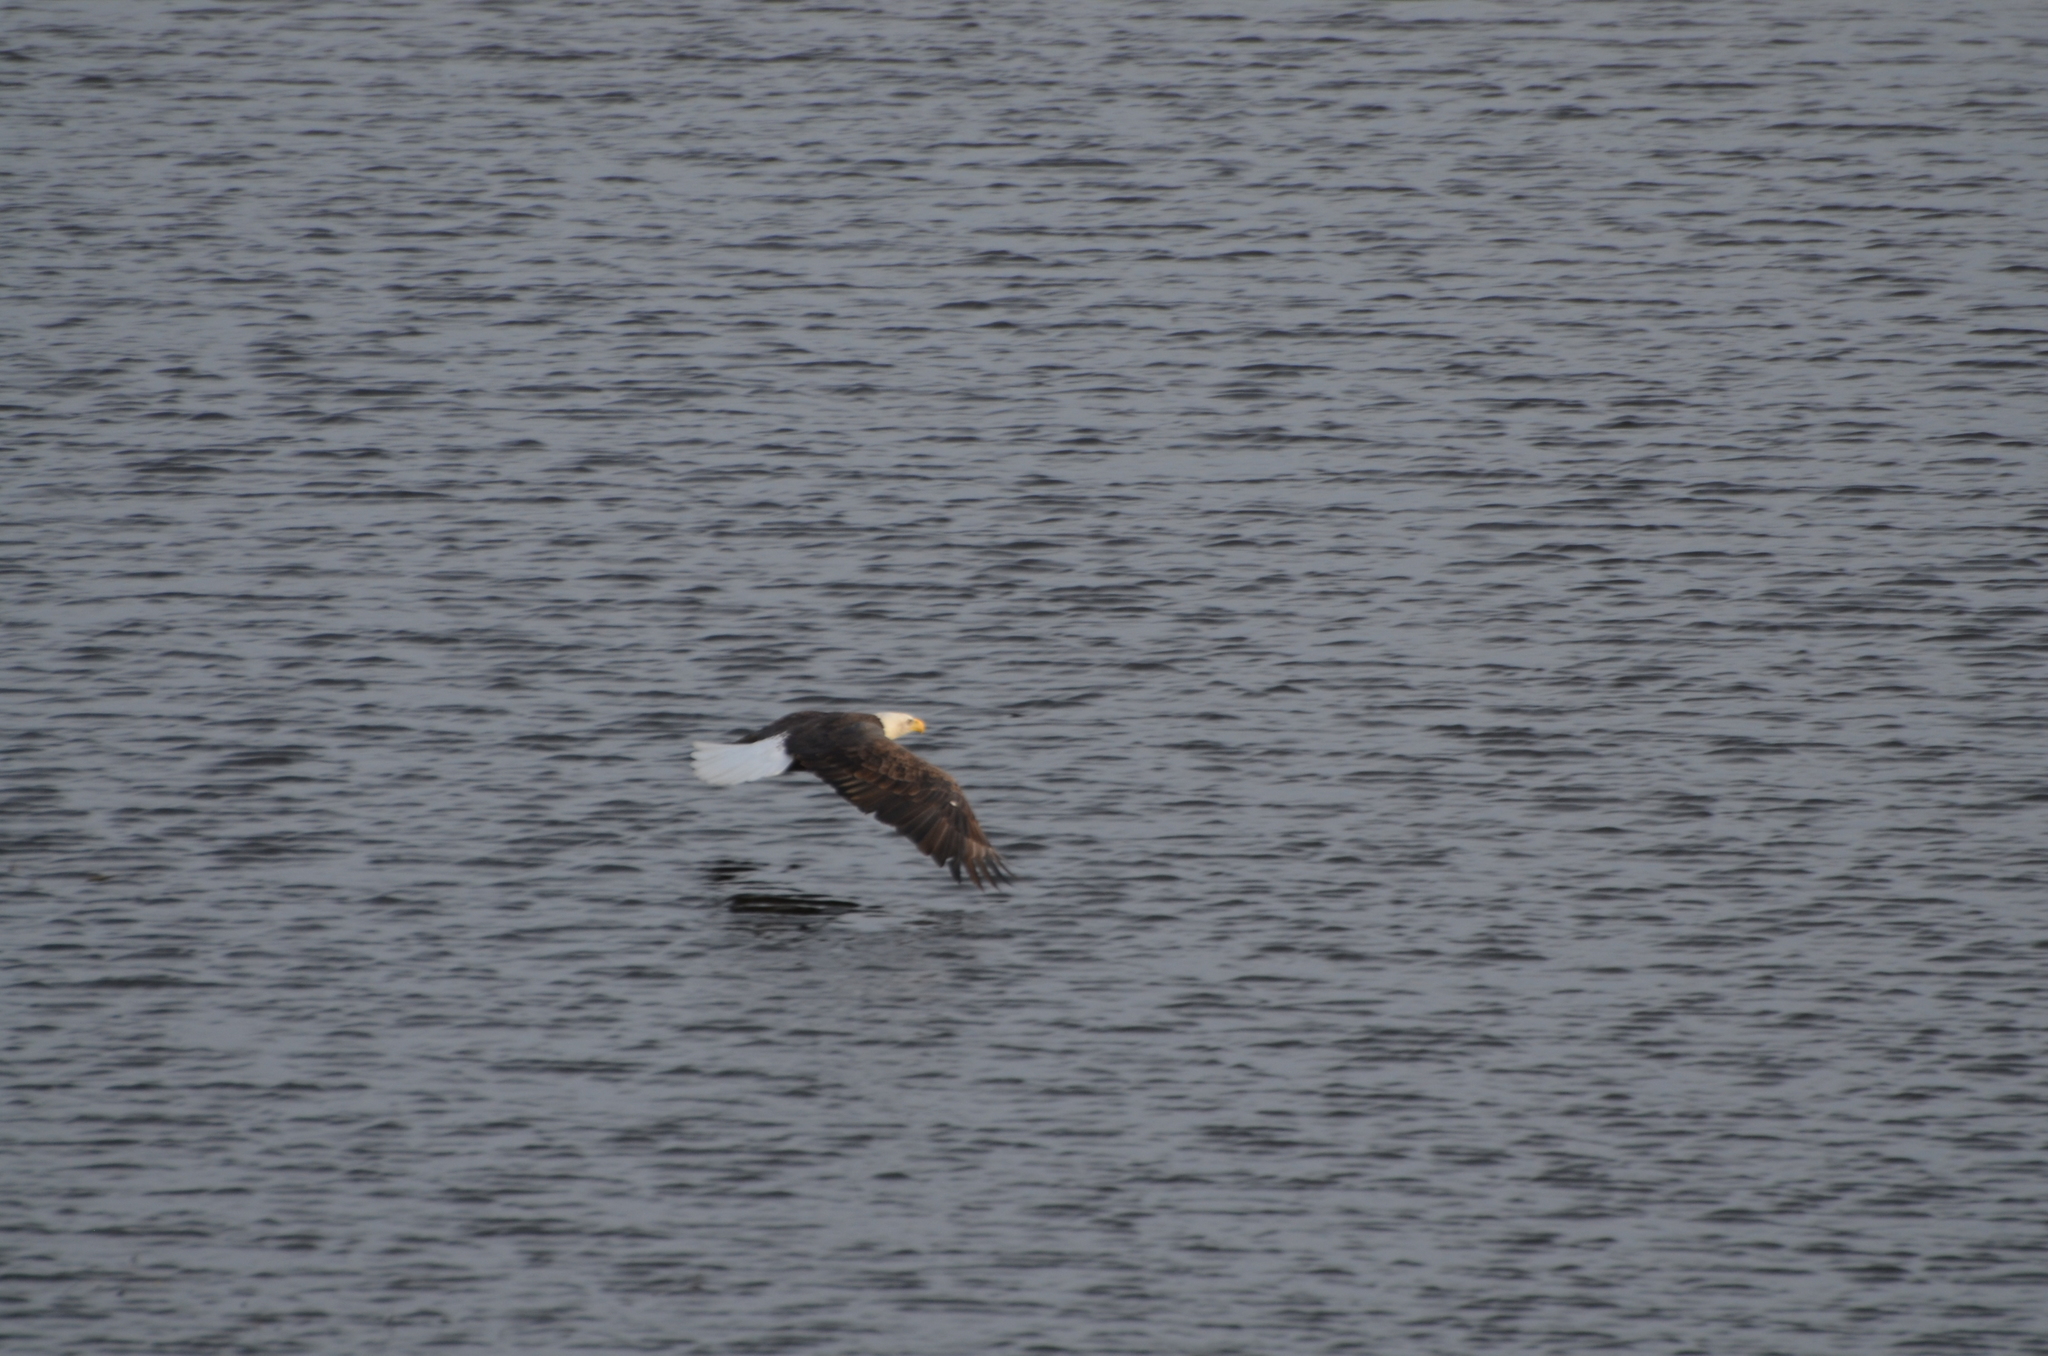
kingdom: Animalia
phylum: Chordata
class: Aves
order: Accipitriformes
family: Accipitridae
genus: Haliaeetus
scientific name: Haliaeetus leucocephalus
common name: Bald eagle
